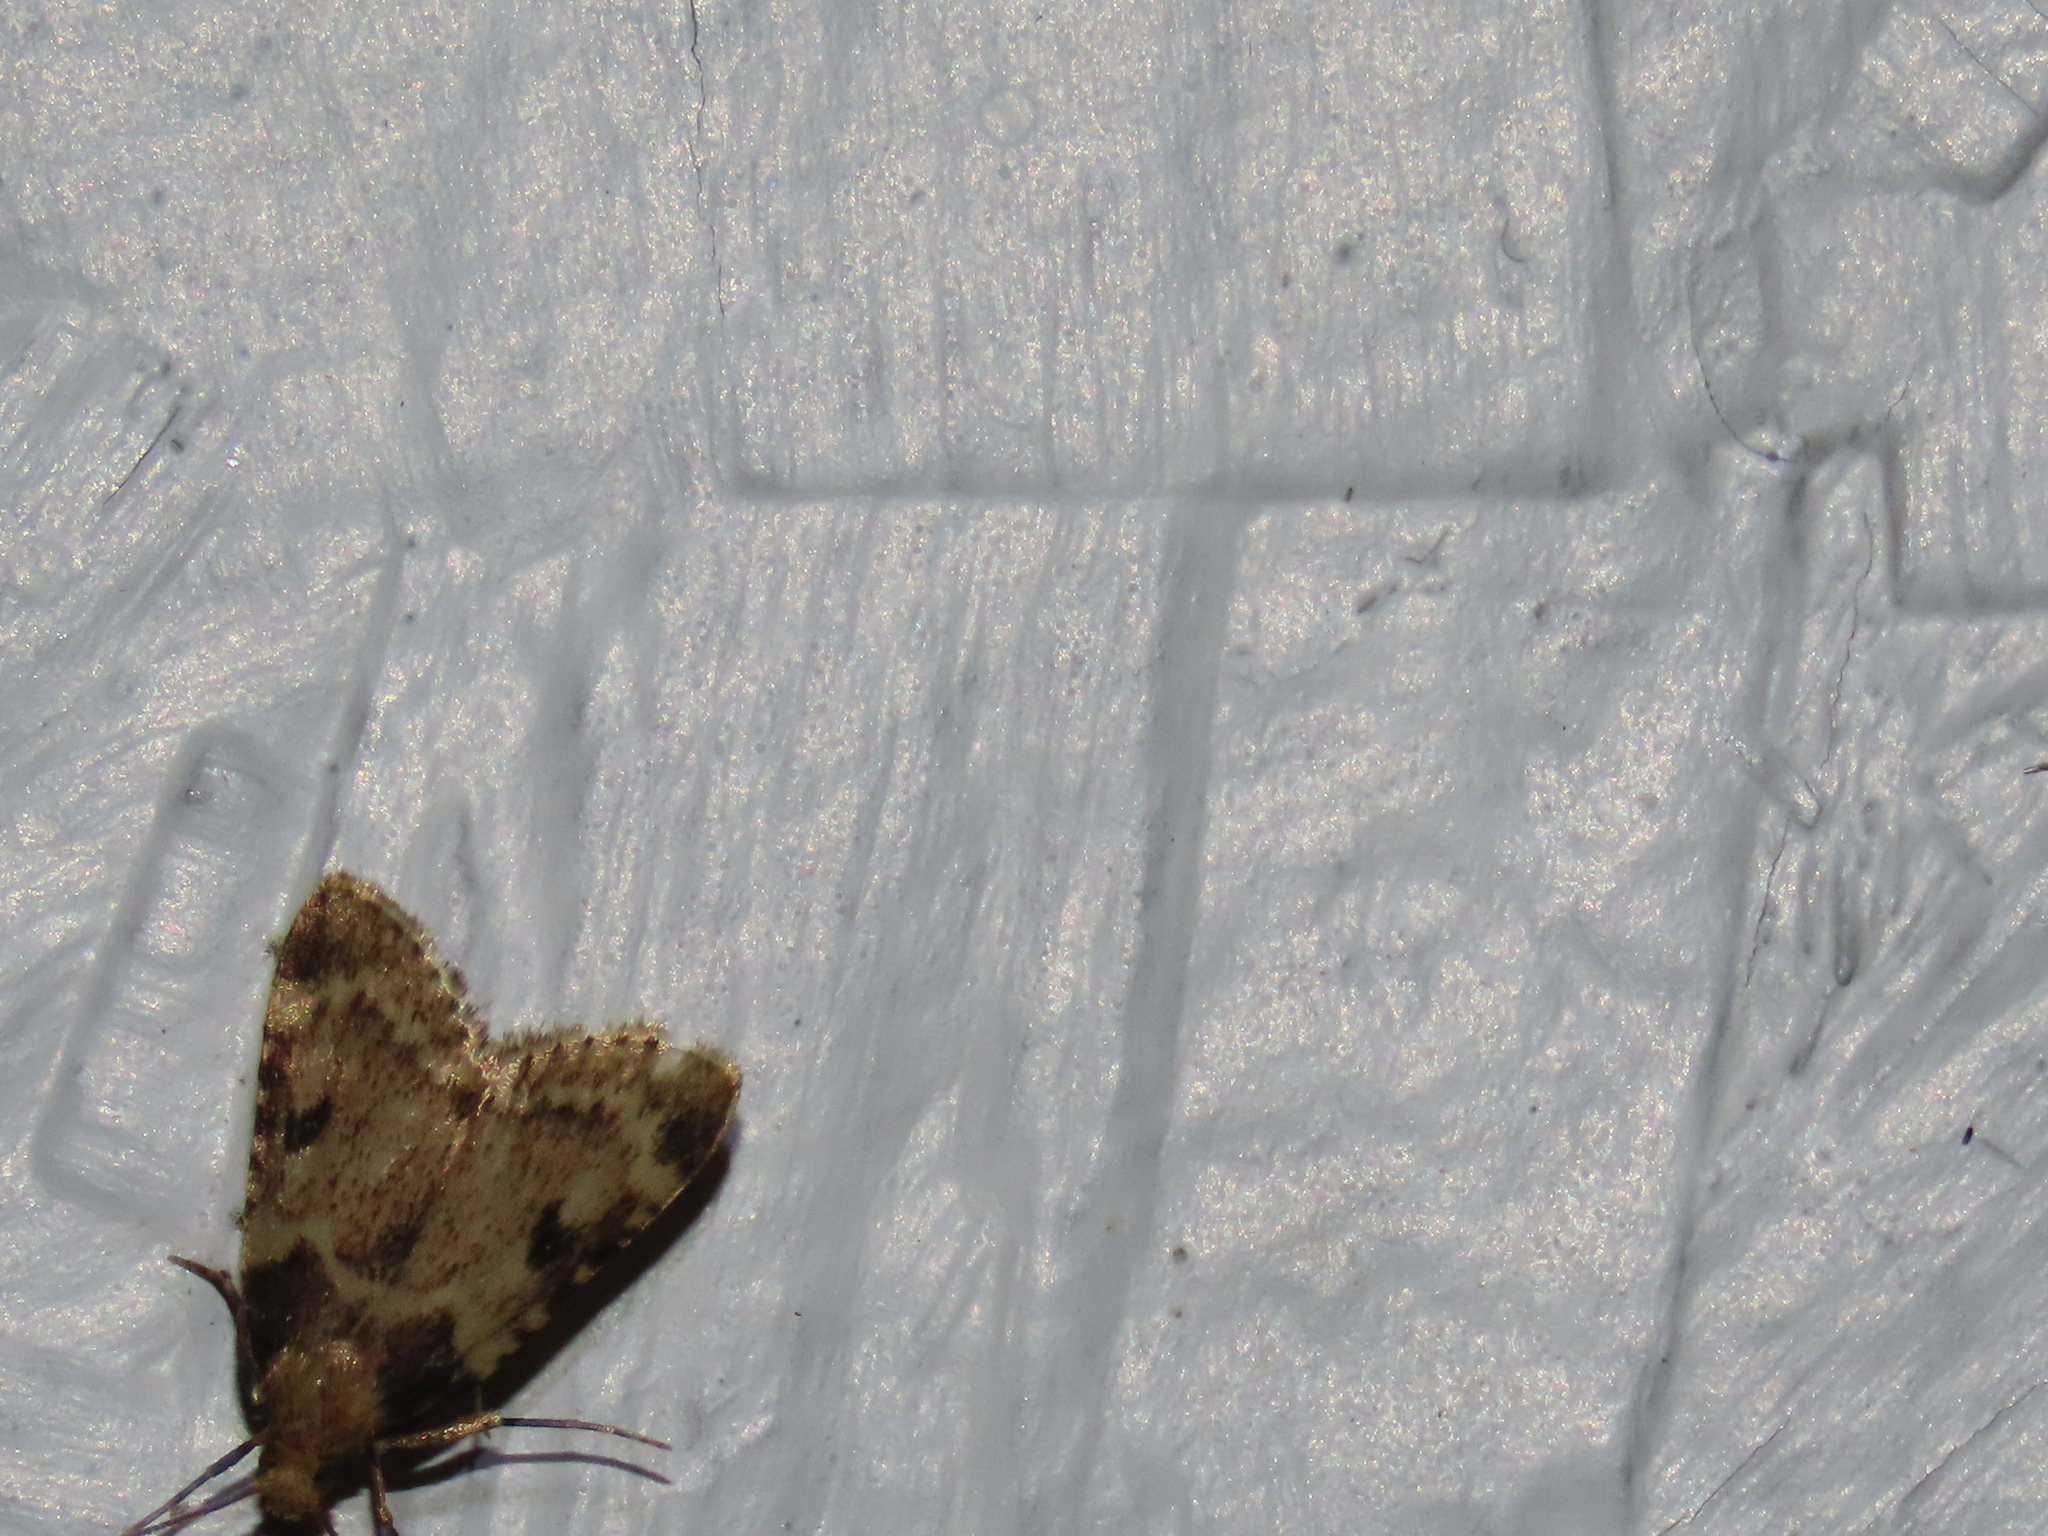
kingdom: Animalia
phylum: Arthropoda
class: Insecta
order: Lepidoptera
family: Pyralidae
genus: Aglossa
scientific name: Aglossa costiferalis
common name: Calico pyralid moth
